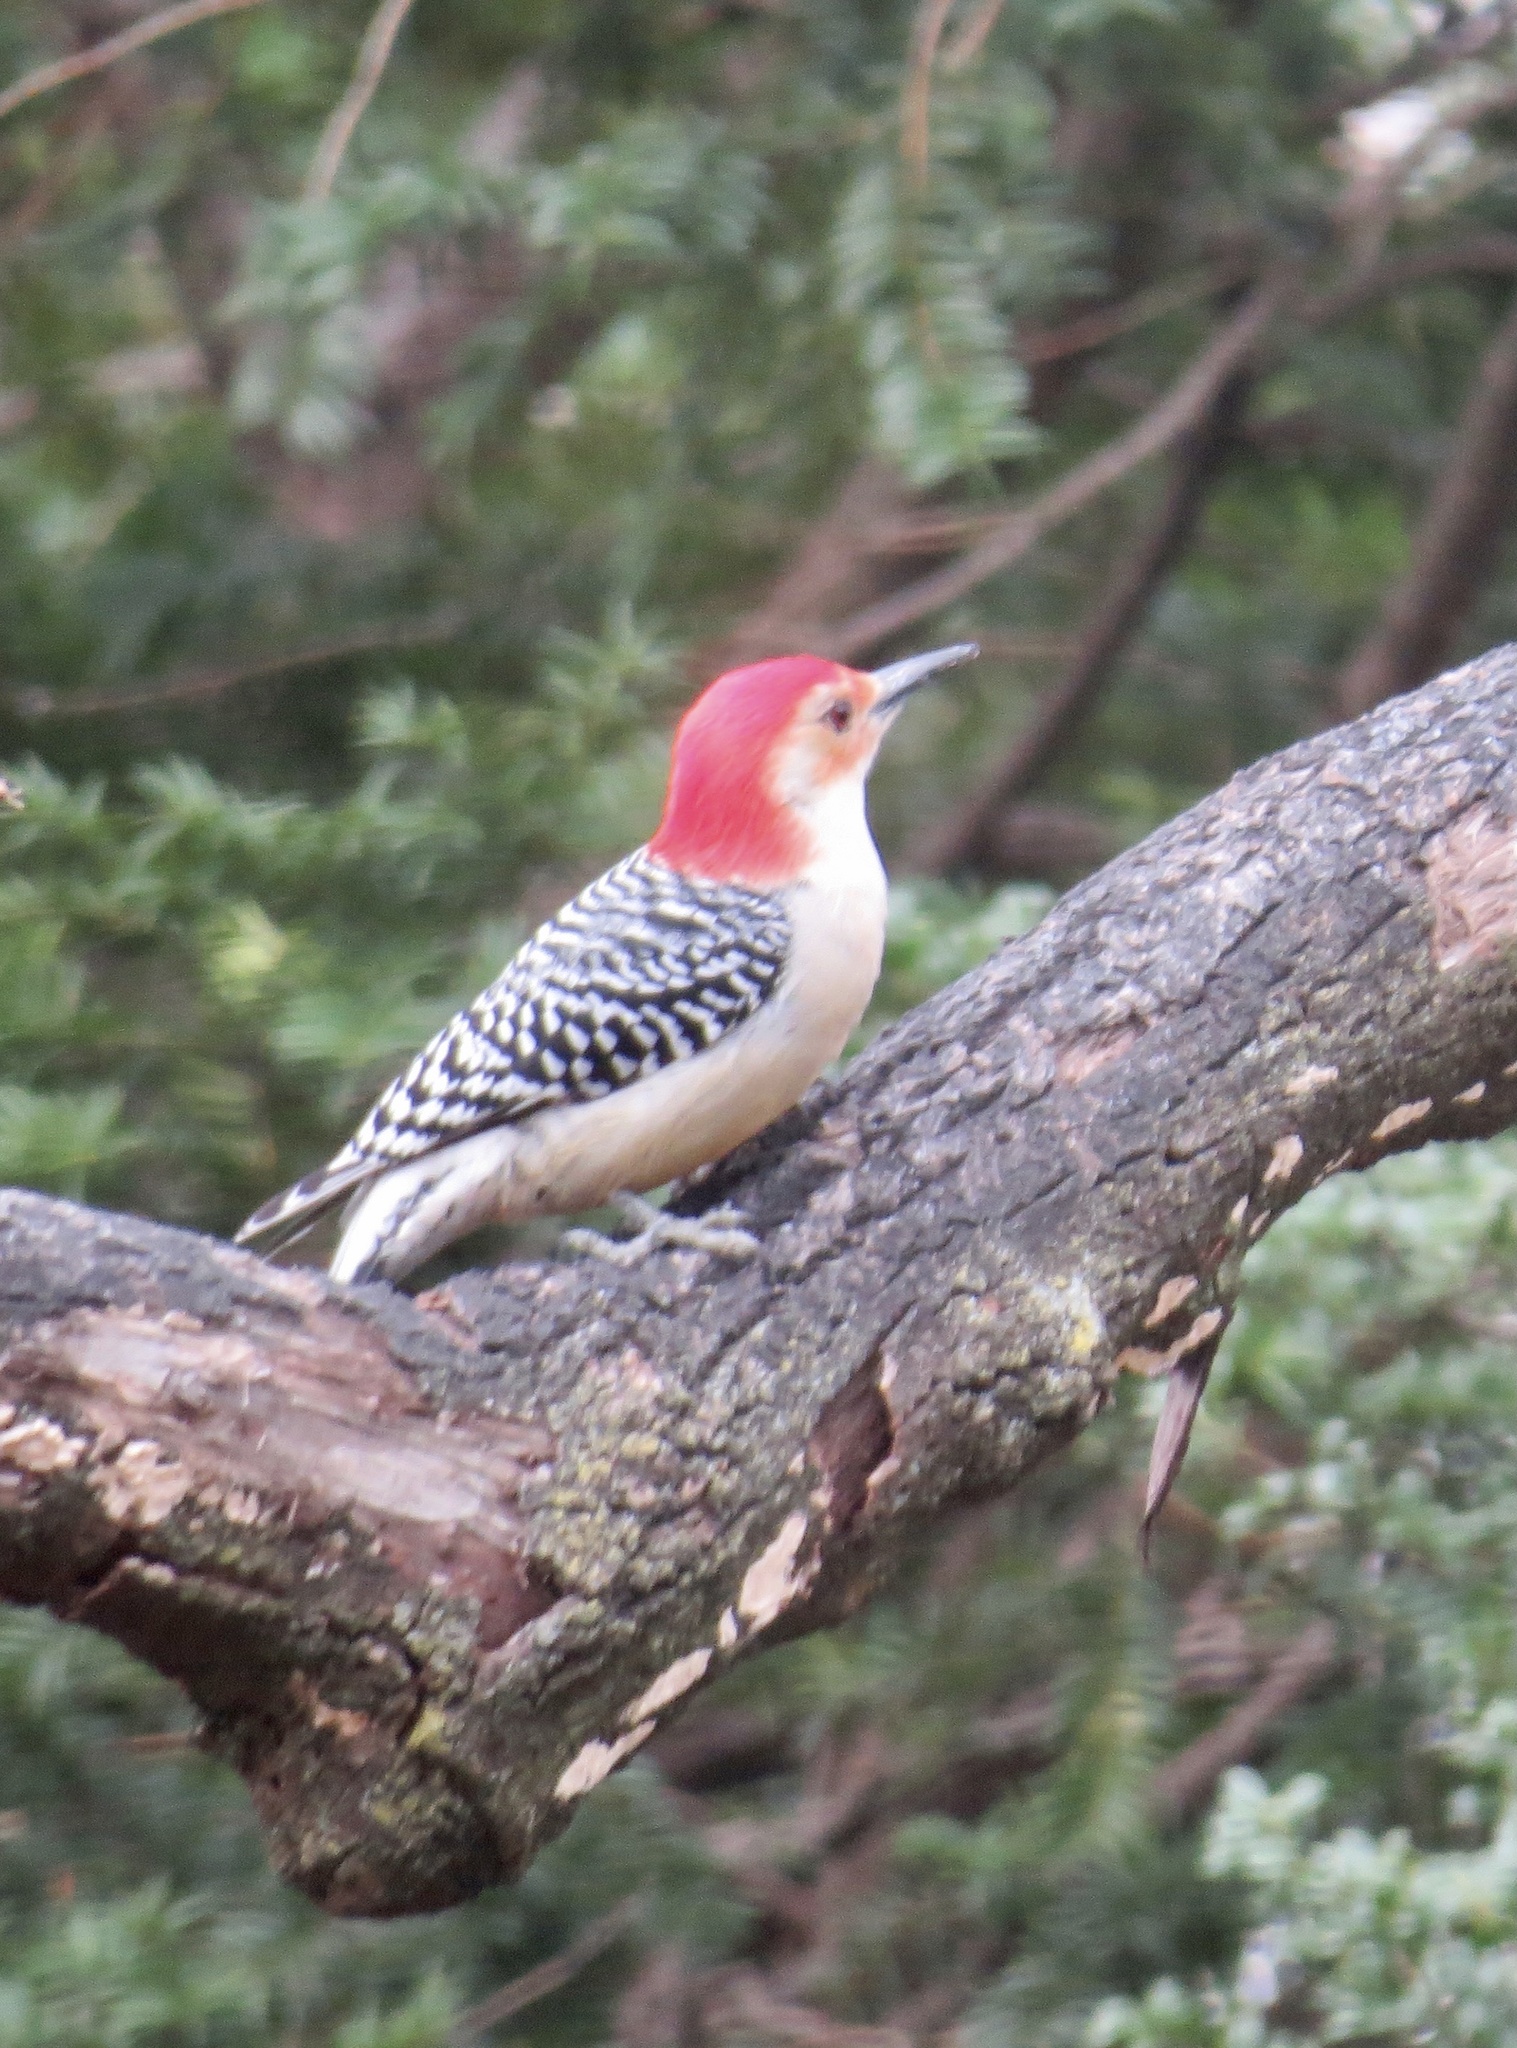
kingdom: Animalia
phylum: Chordata
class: Aves
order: Piciformes
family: Picidae
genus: Melanerpes
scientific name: Melanerpes carolinus
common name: Red-bellied woodpecker
